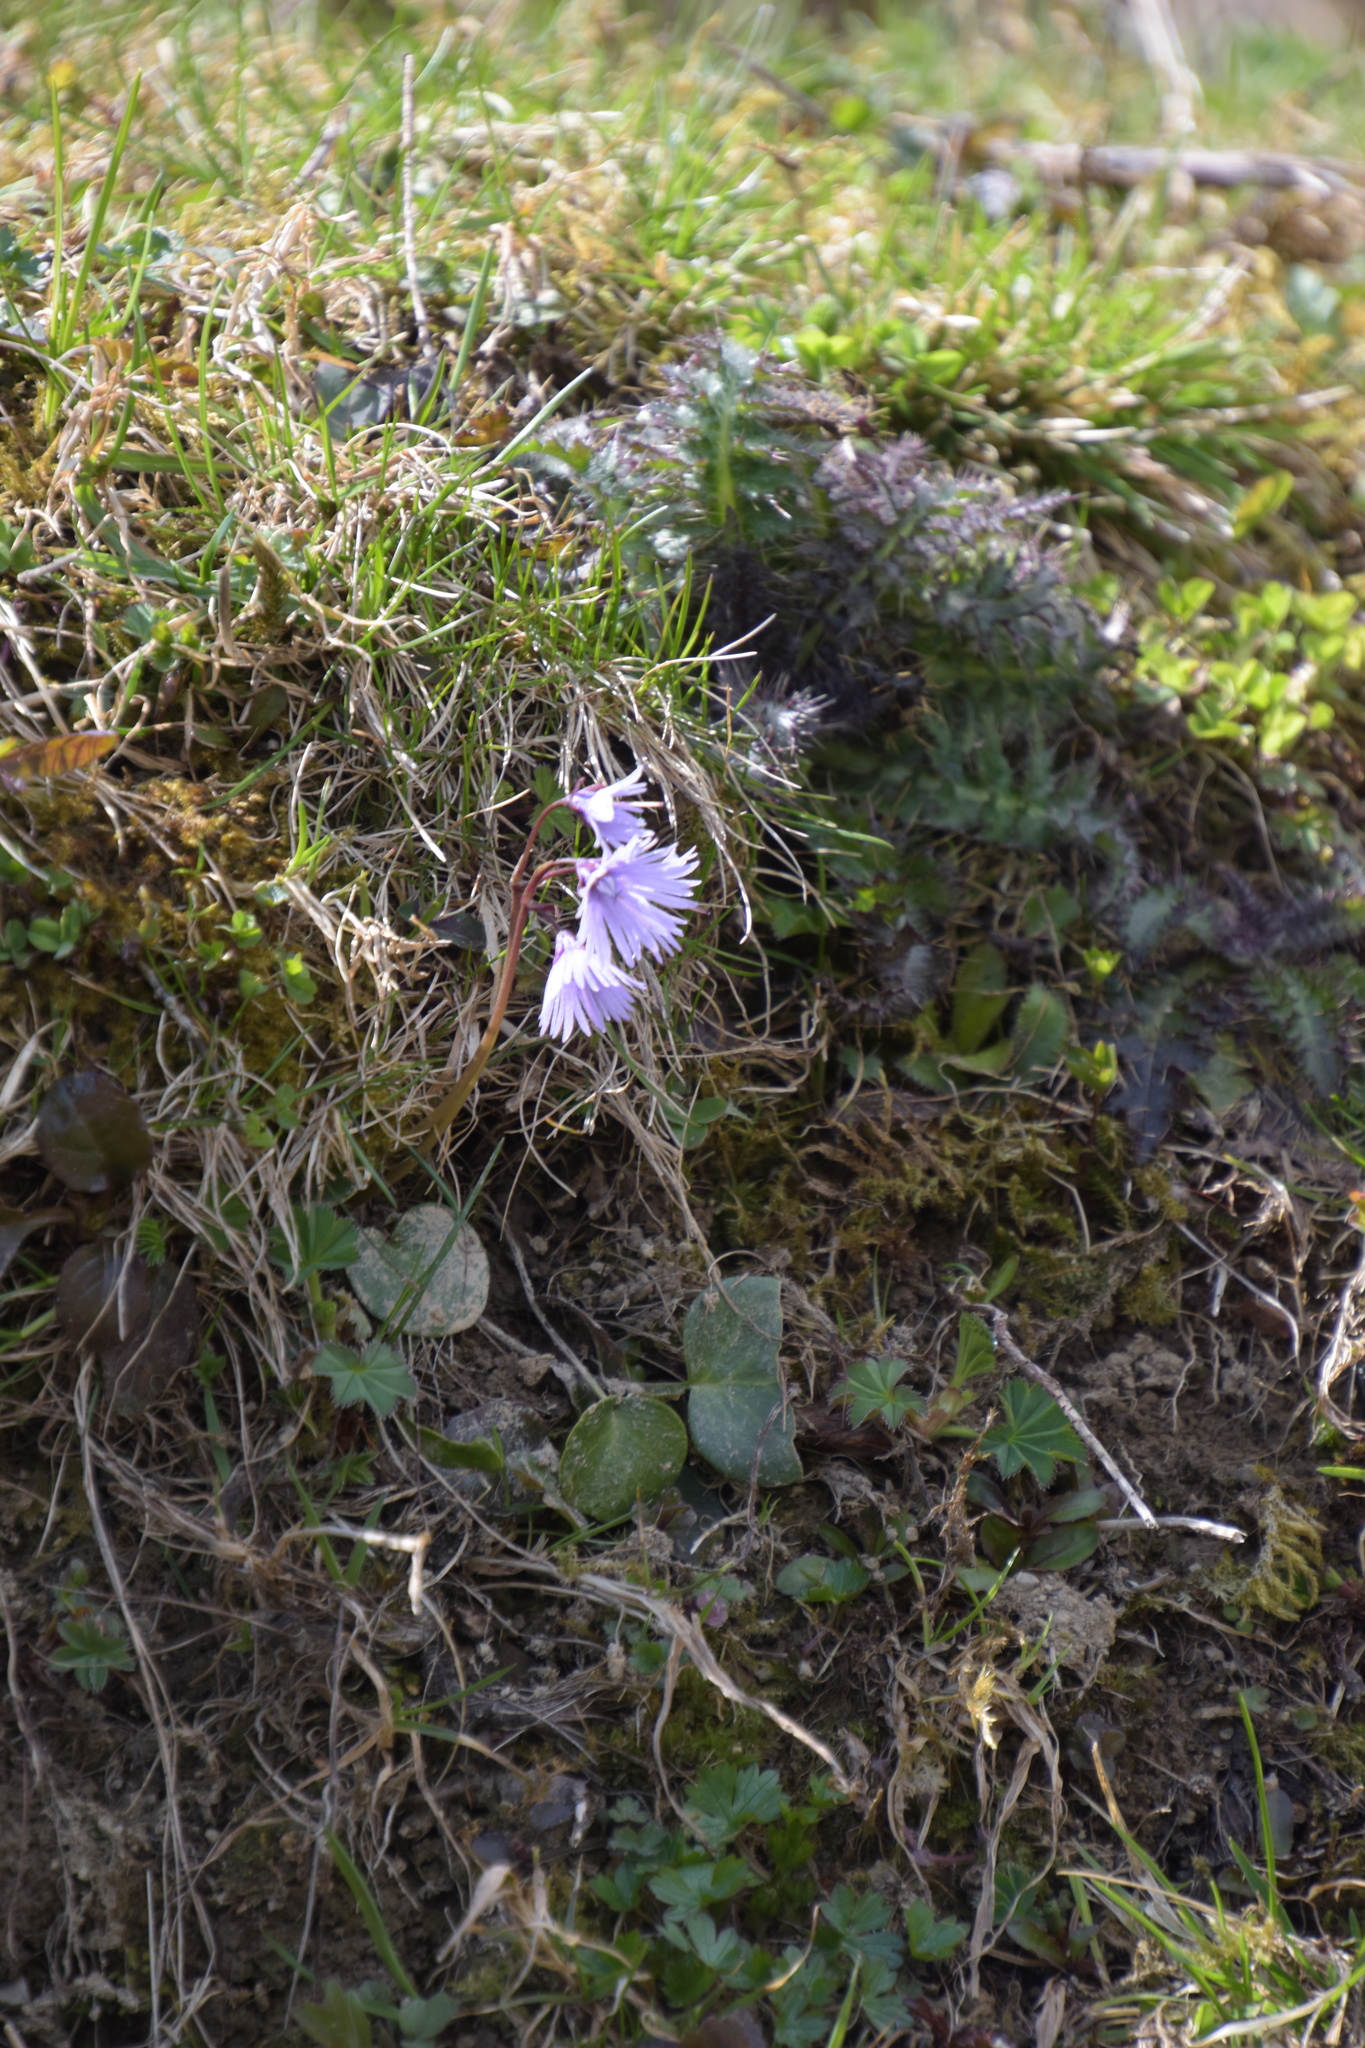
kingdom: Plantae
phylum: Tracheophyta
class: Magnoliopsida
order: Ericales
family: Primulaceae
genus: Soldanella
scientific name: Soldanella alpina
